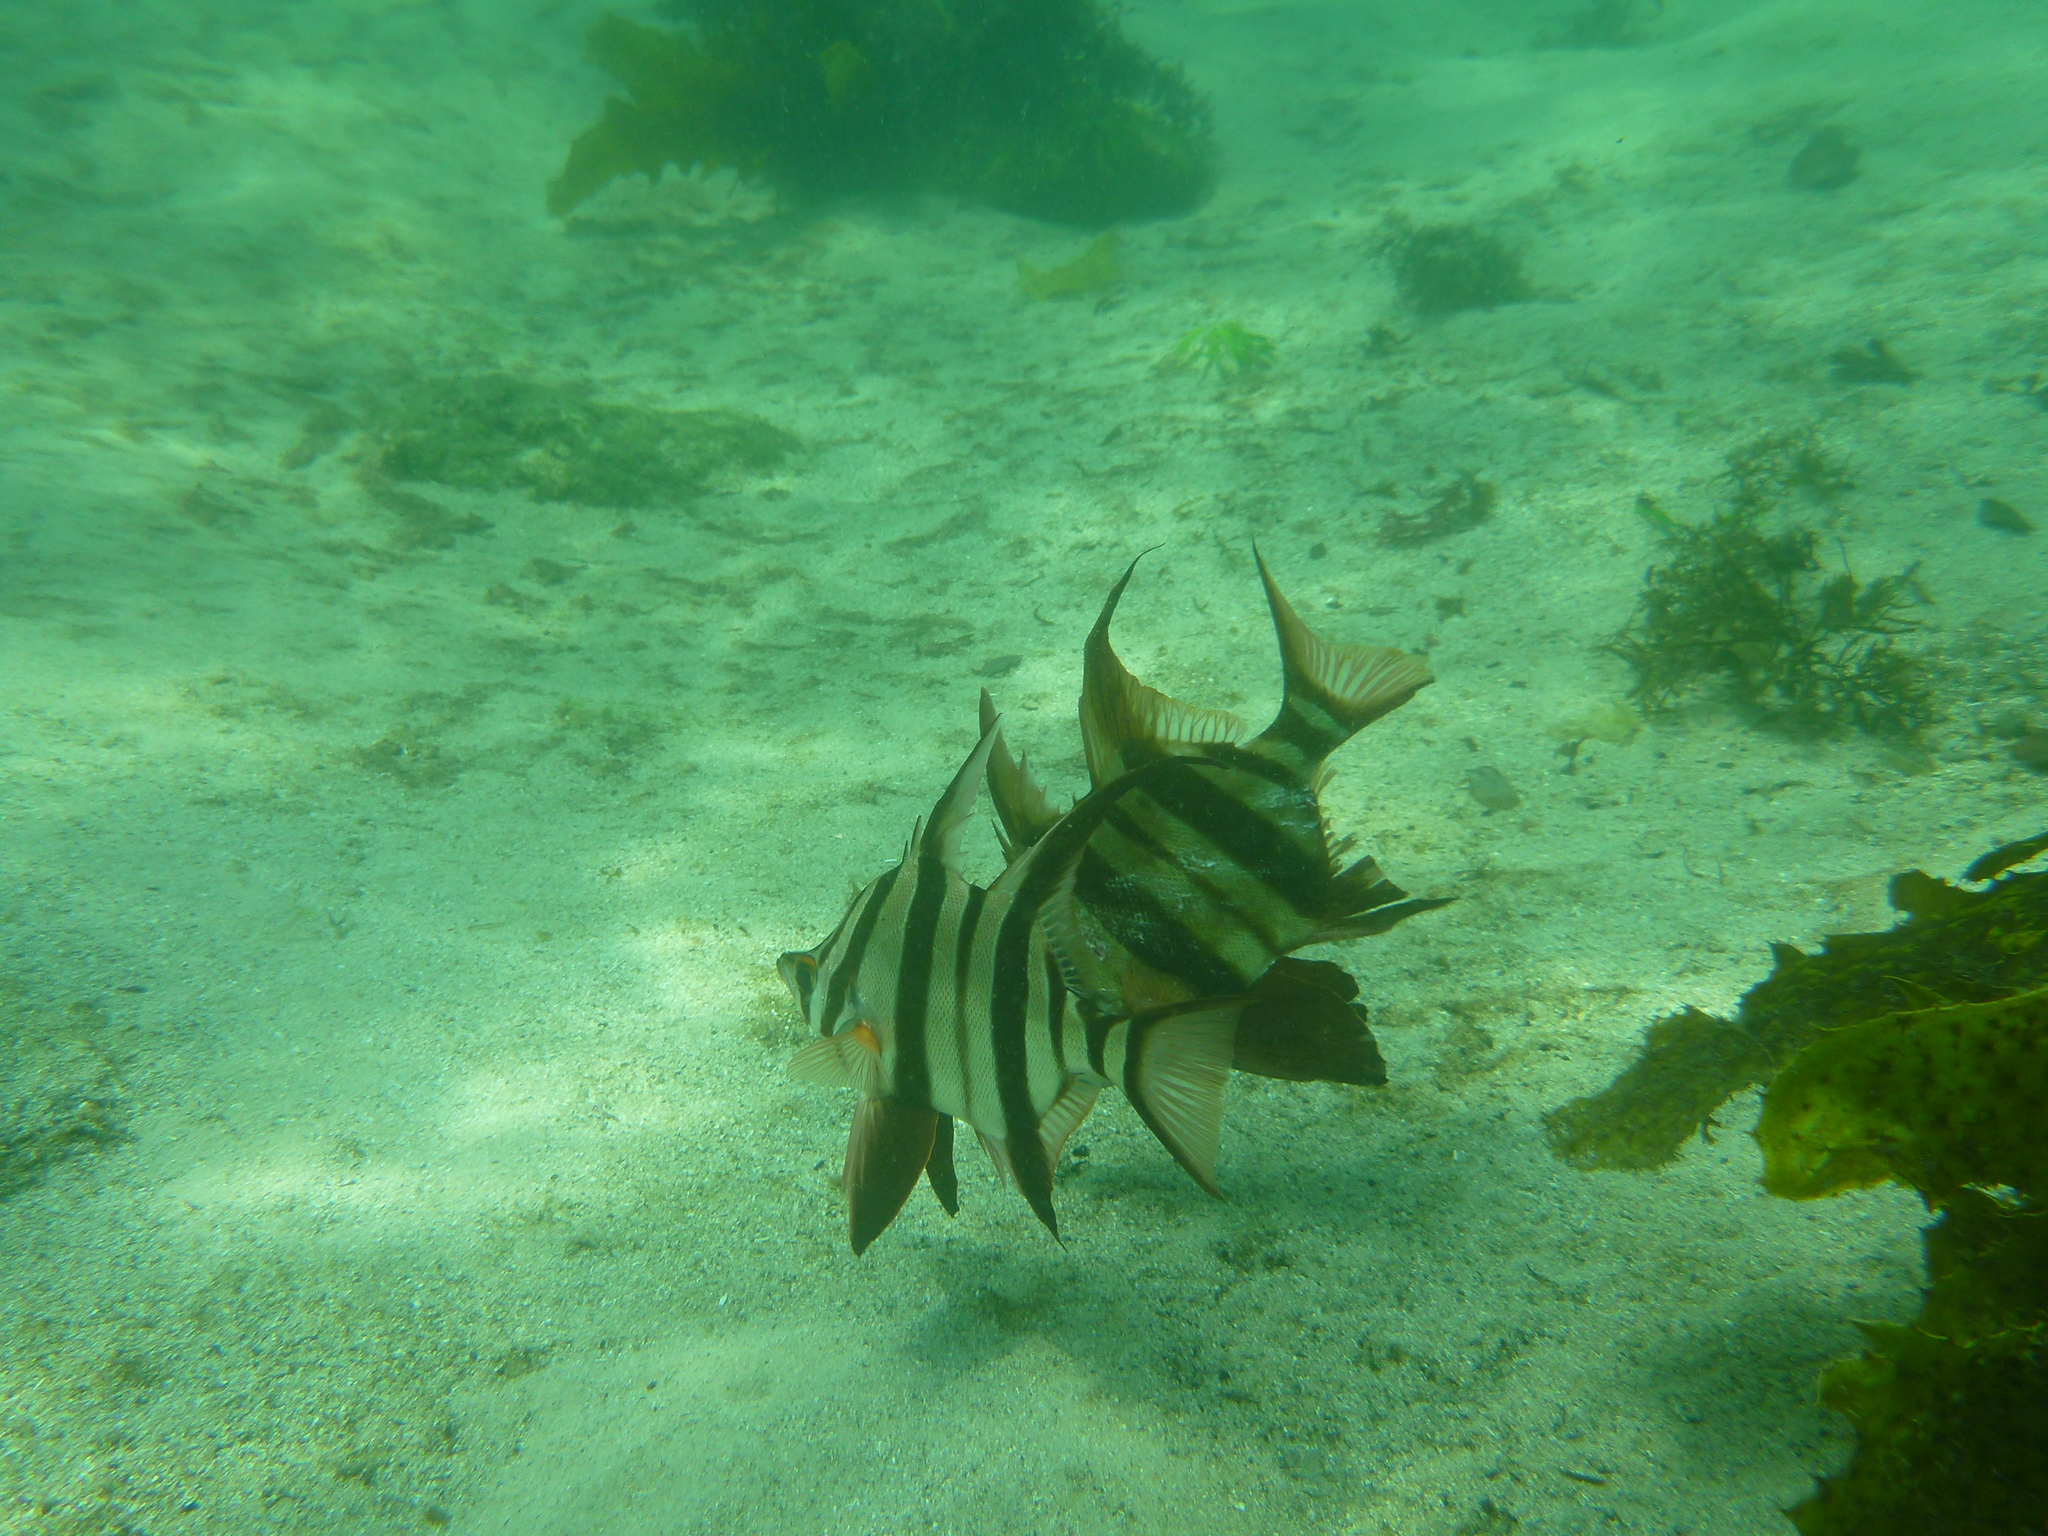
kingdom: Animalia
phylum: Chordata
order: Perciformes
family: Enoplosidae
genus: Enoplosus
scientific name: Enoplosus armatus
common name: Old wife
